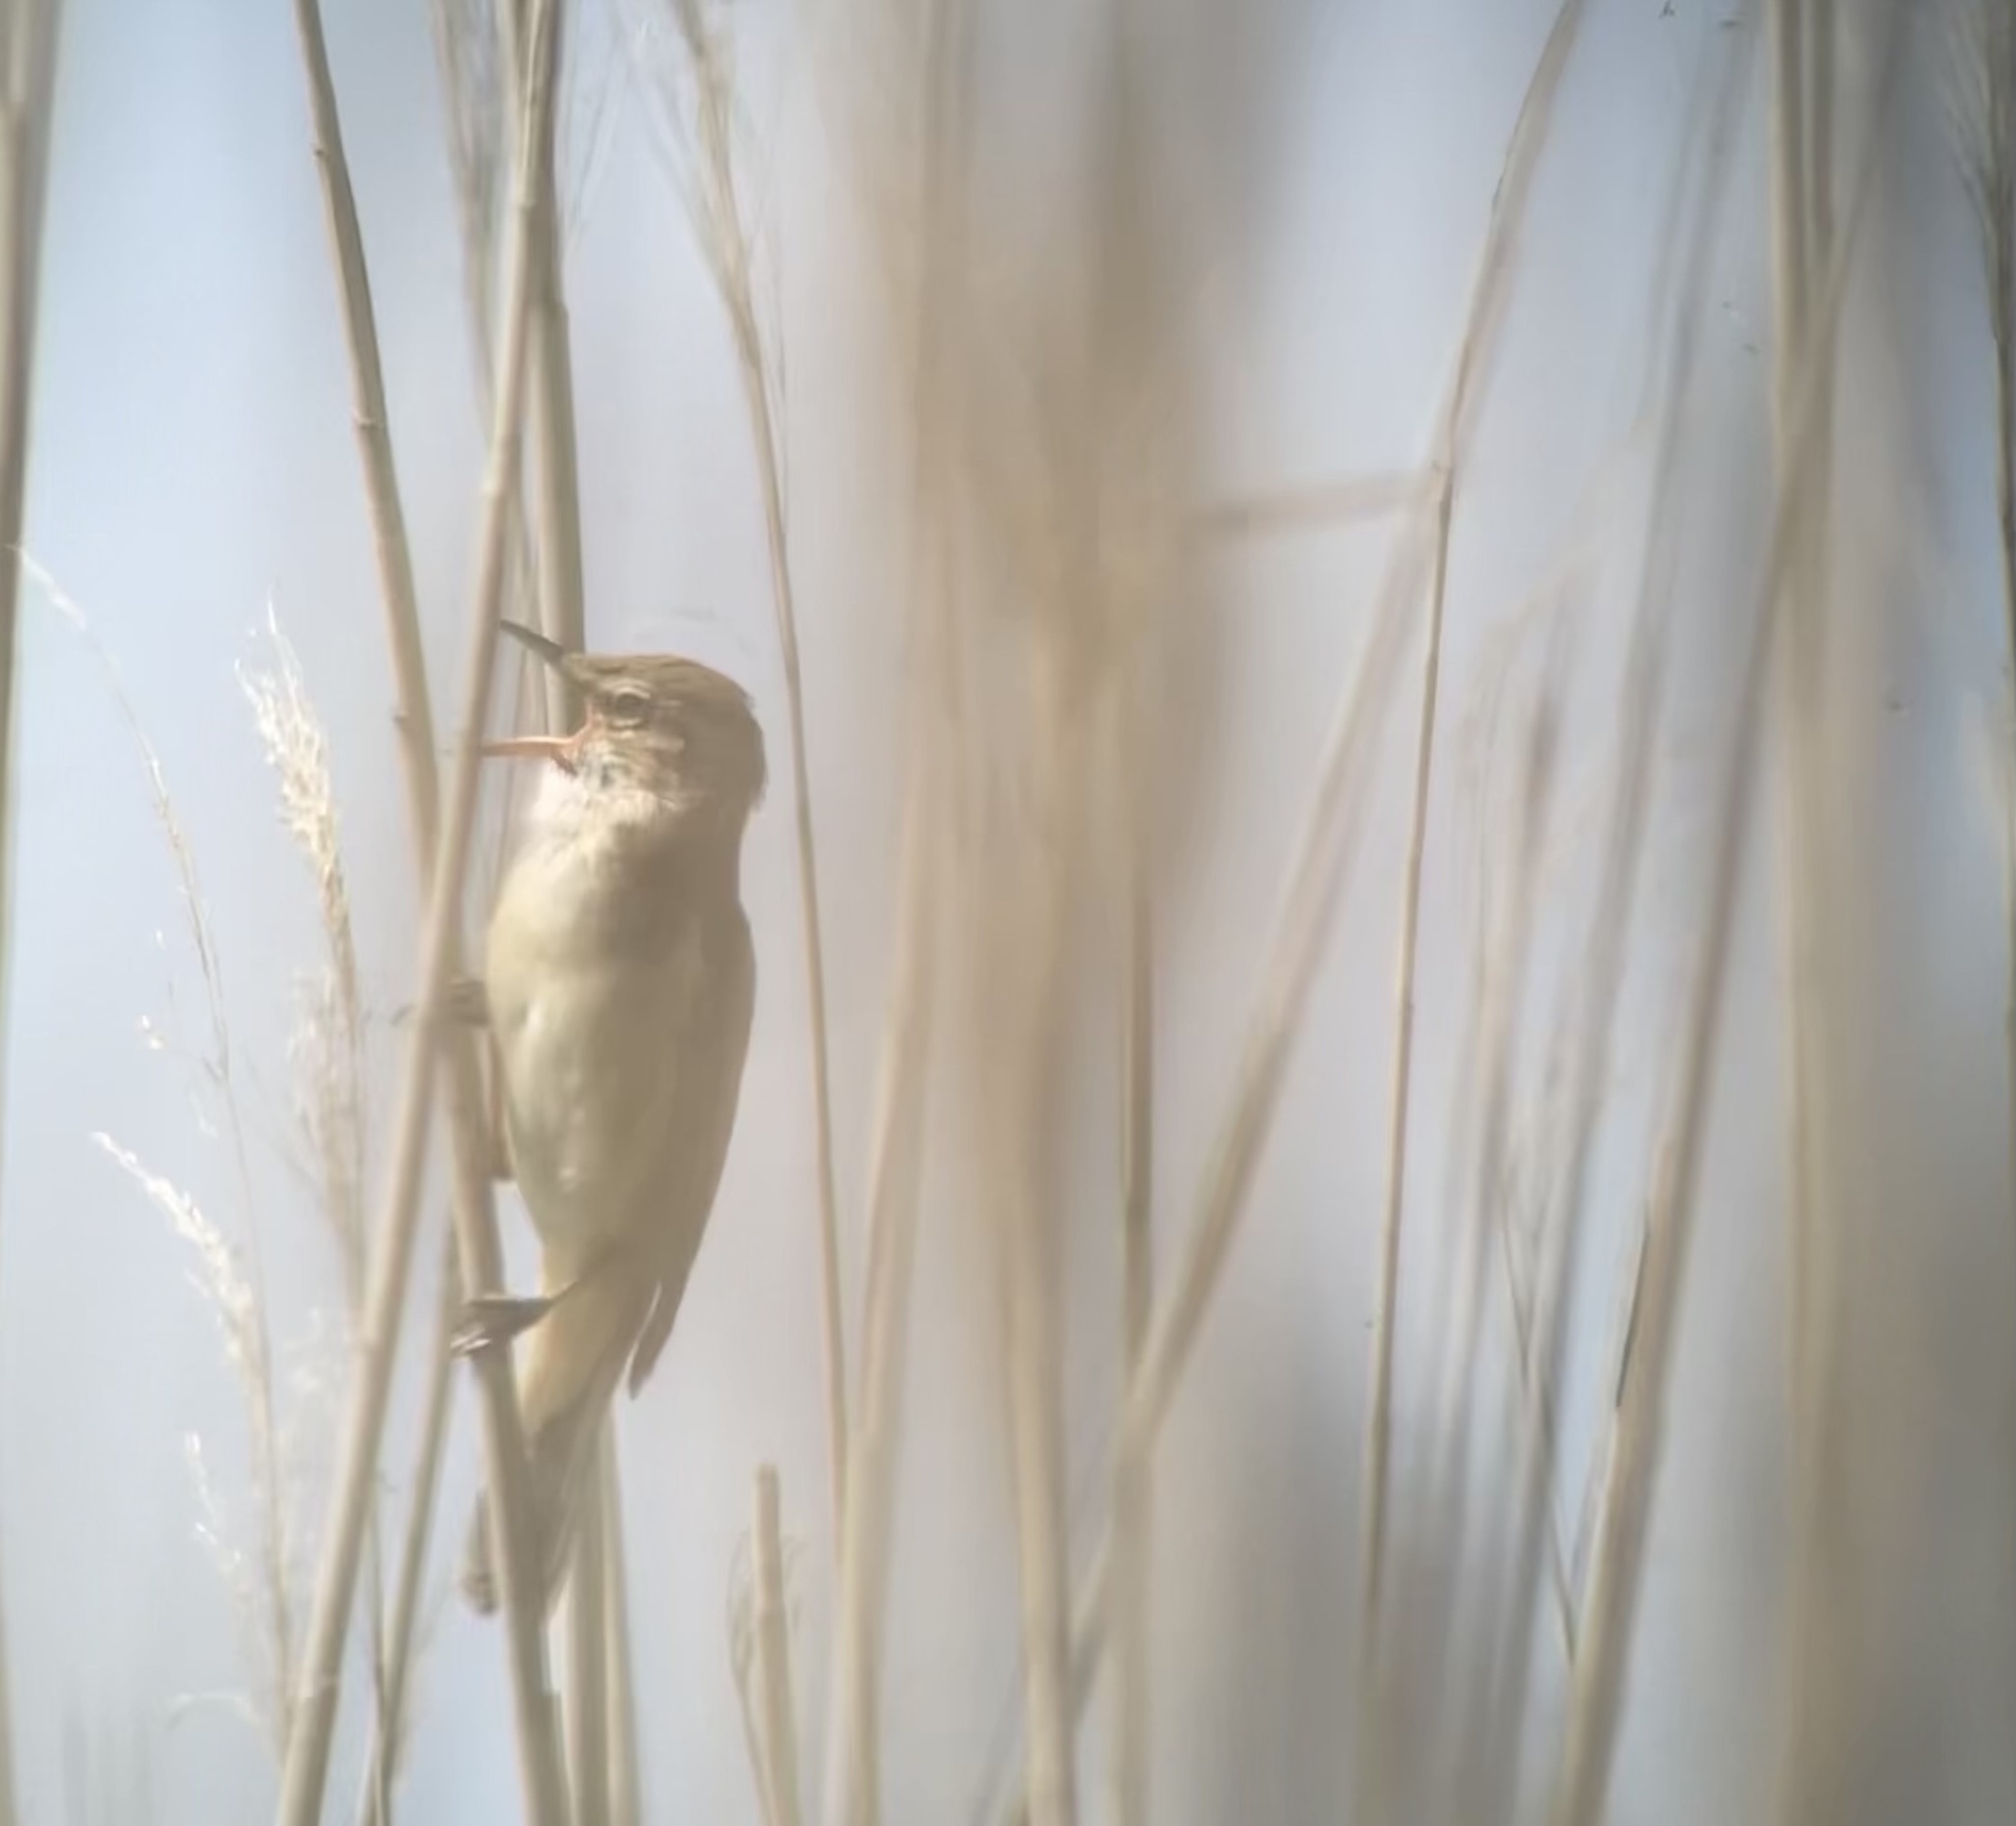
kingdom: Animalia
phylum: Chordata
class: Aves
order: Passeriformes
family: Acrocephalidae
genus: Acrocephalus
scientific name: Acrocephalus arundinaceus
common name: Great reed warbler
